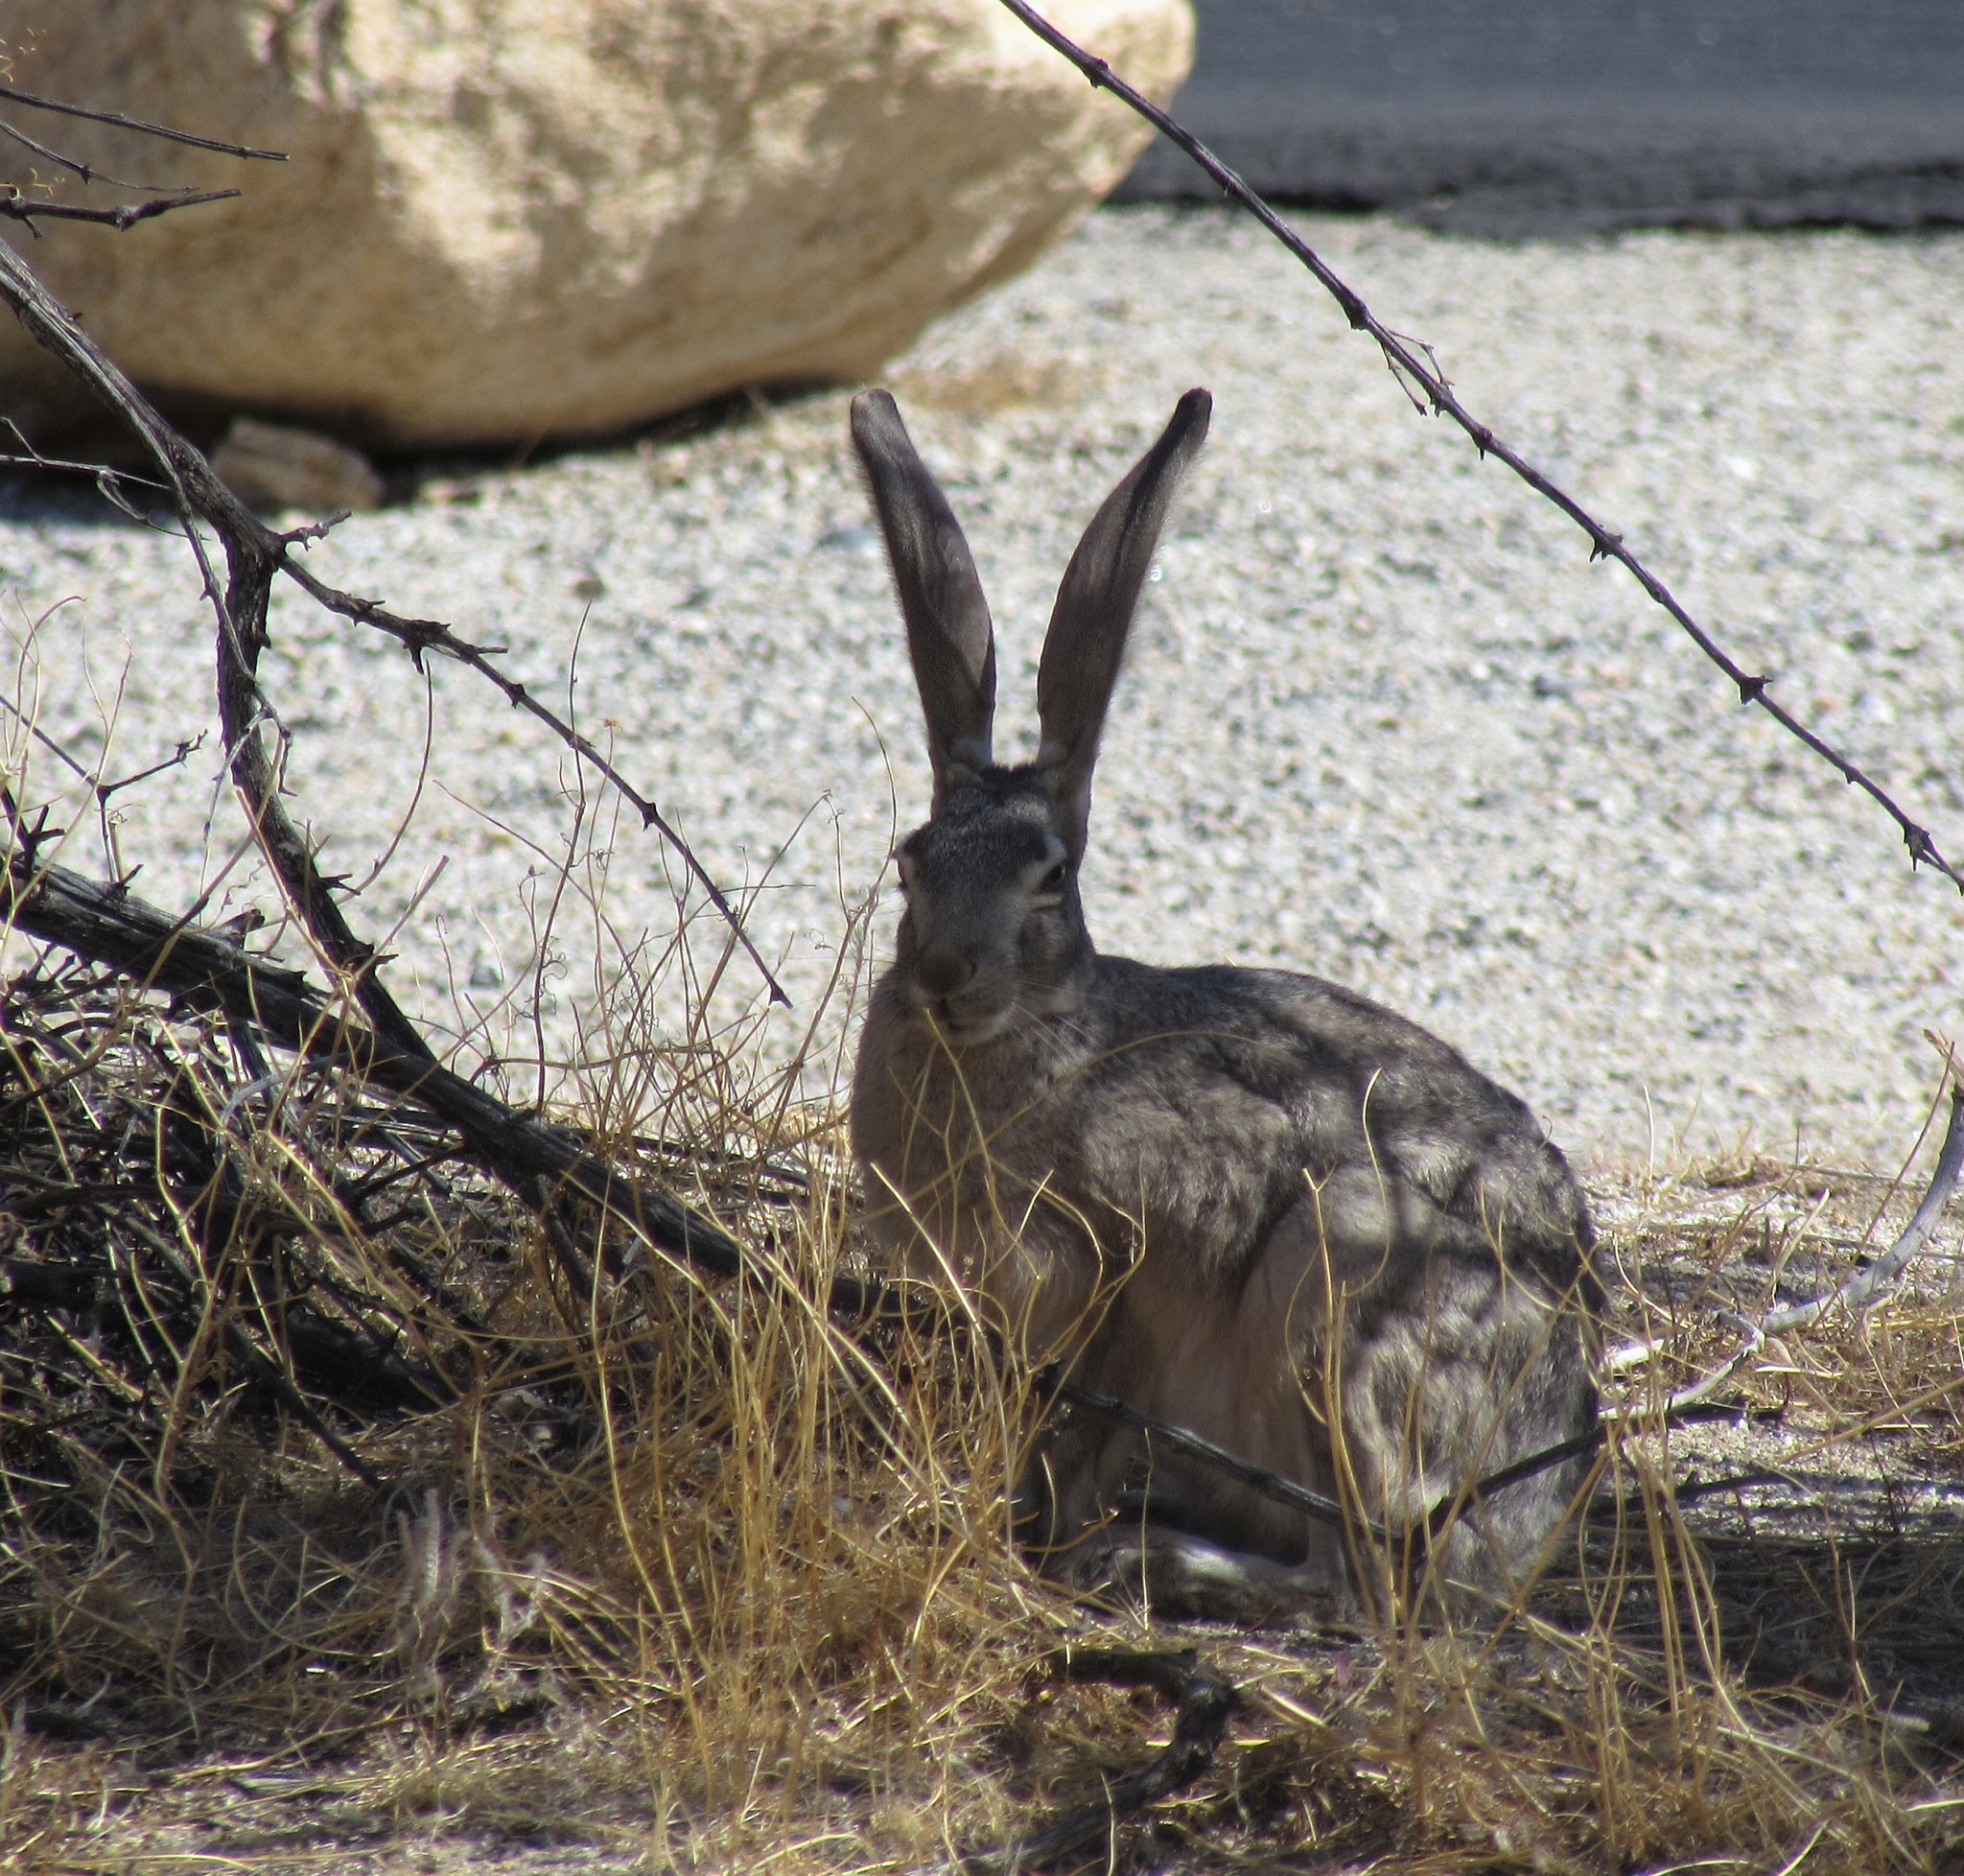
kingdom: Animalia
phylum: Chordata
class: Mammalia
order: Lagomorpha
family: Leporidae
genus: Lepus
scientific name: Lepus californicus
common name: Black-tailed jackrabbit
